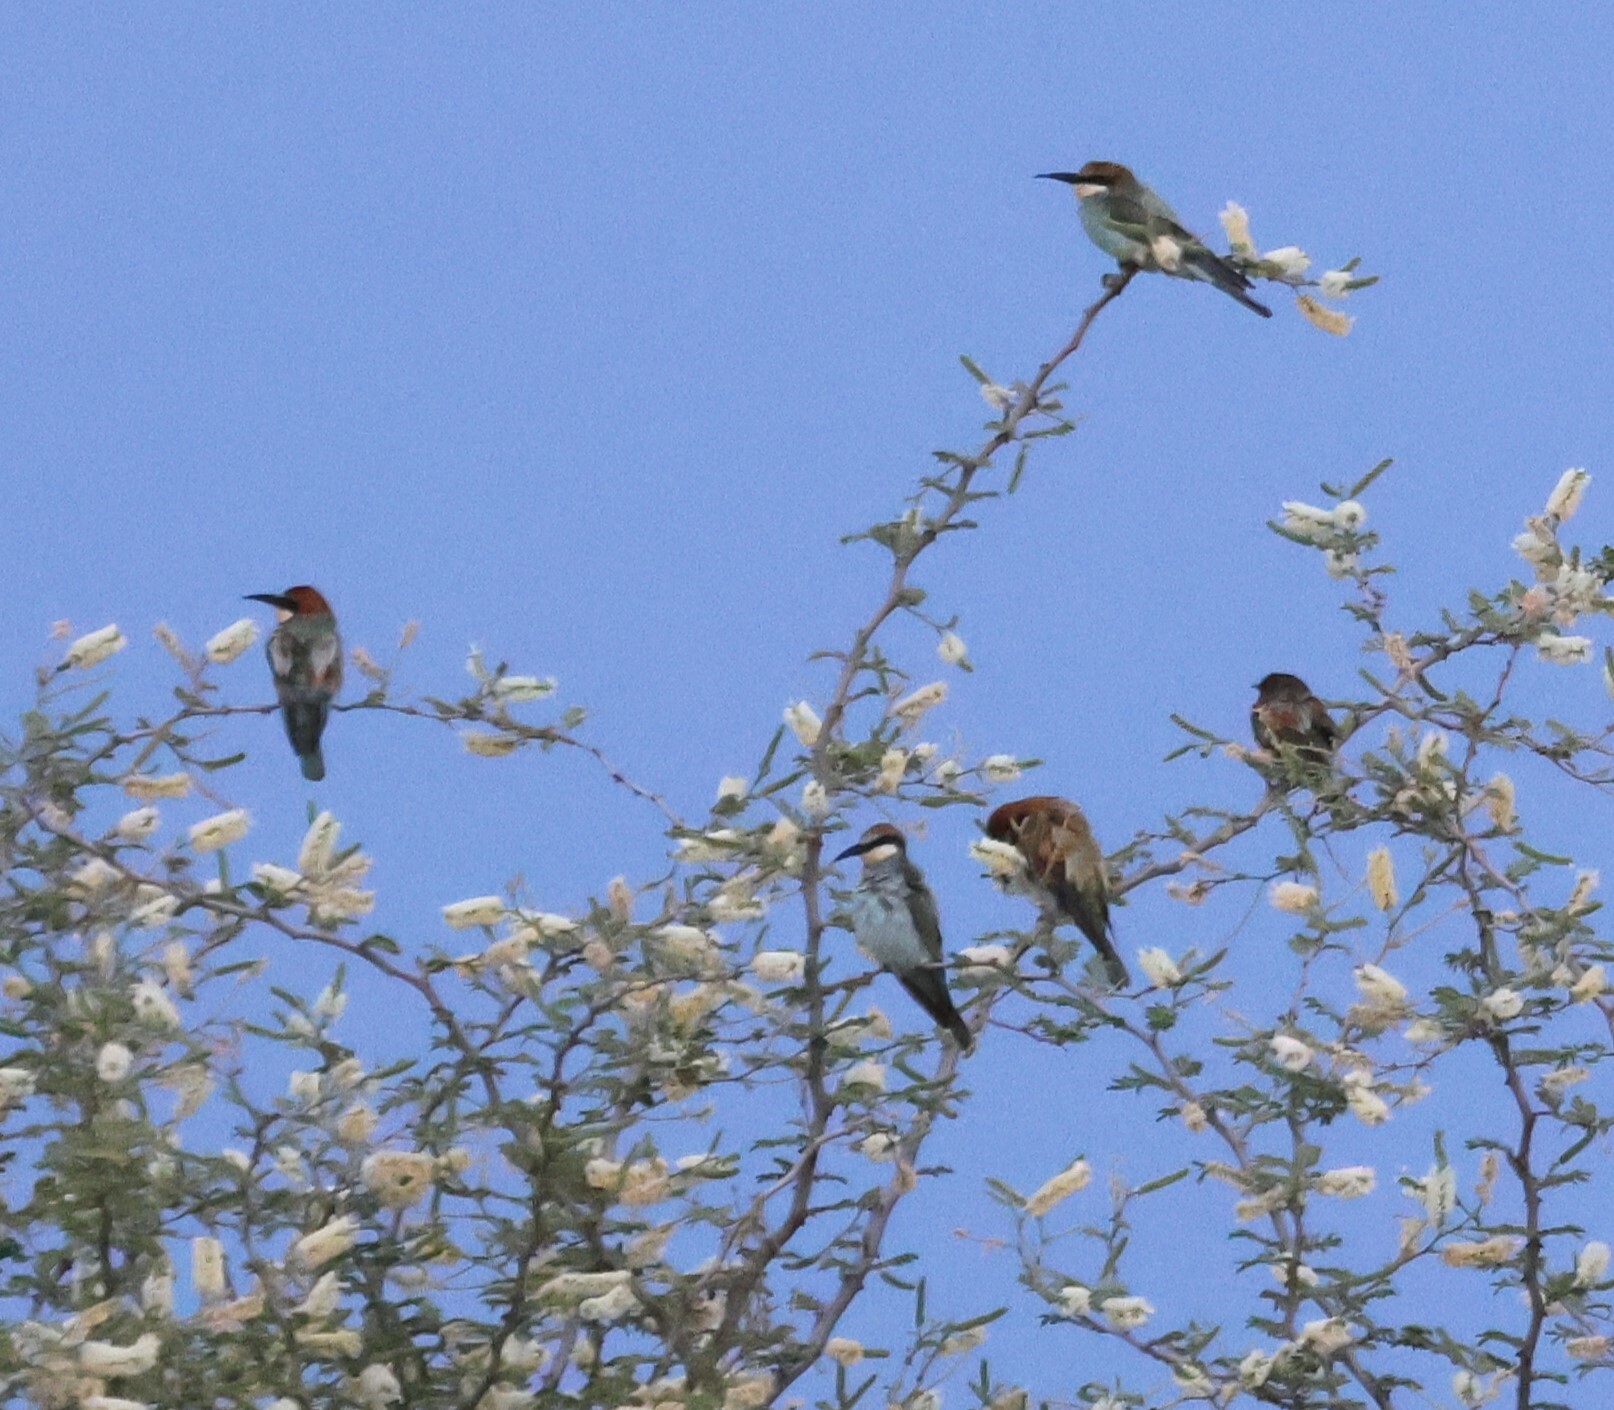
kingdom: Animalia
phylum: Chordata
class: Aves
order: Coraciiformes
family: Meropidae
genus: Merops
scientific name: Merops apiaster
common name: European bee-eater
